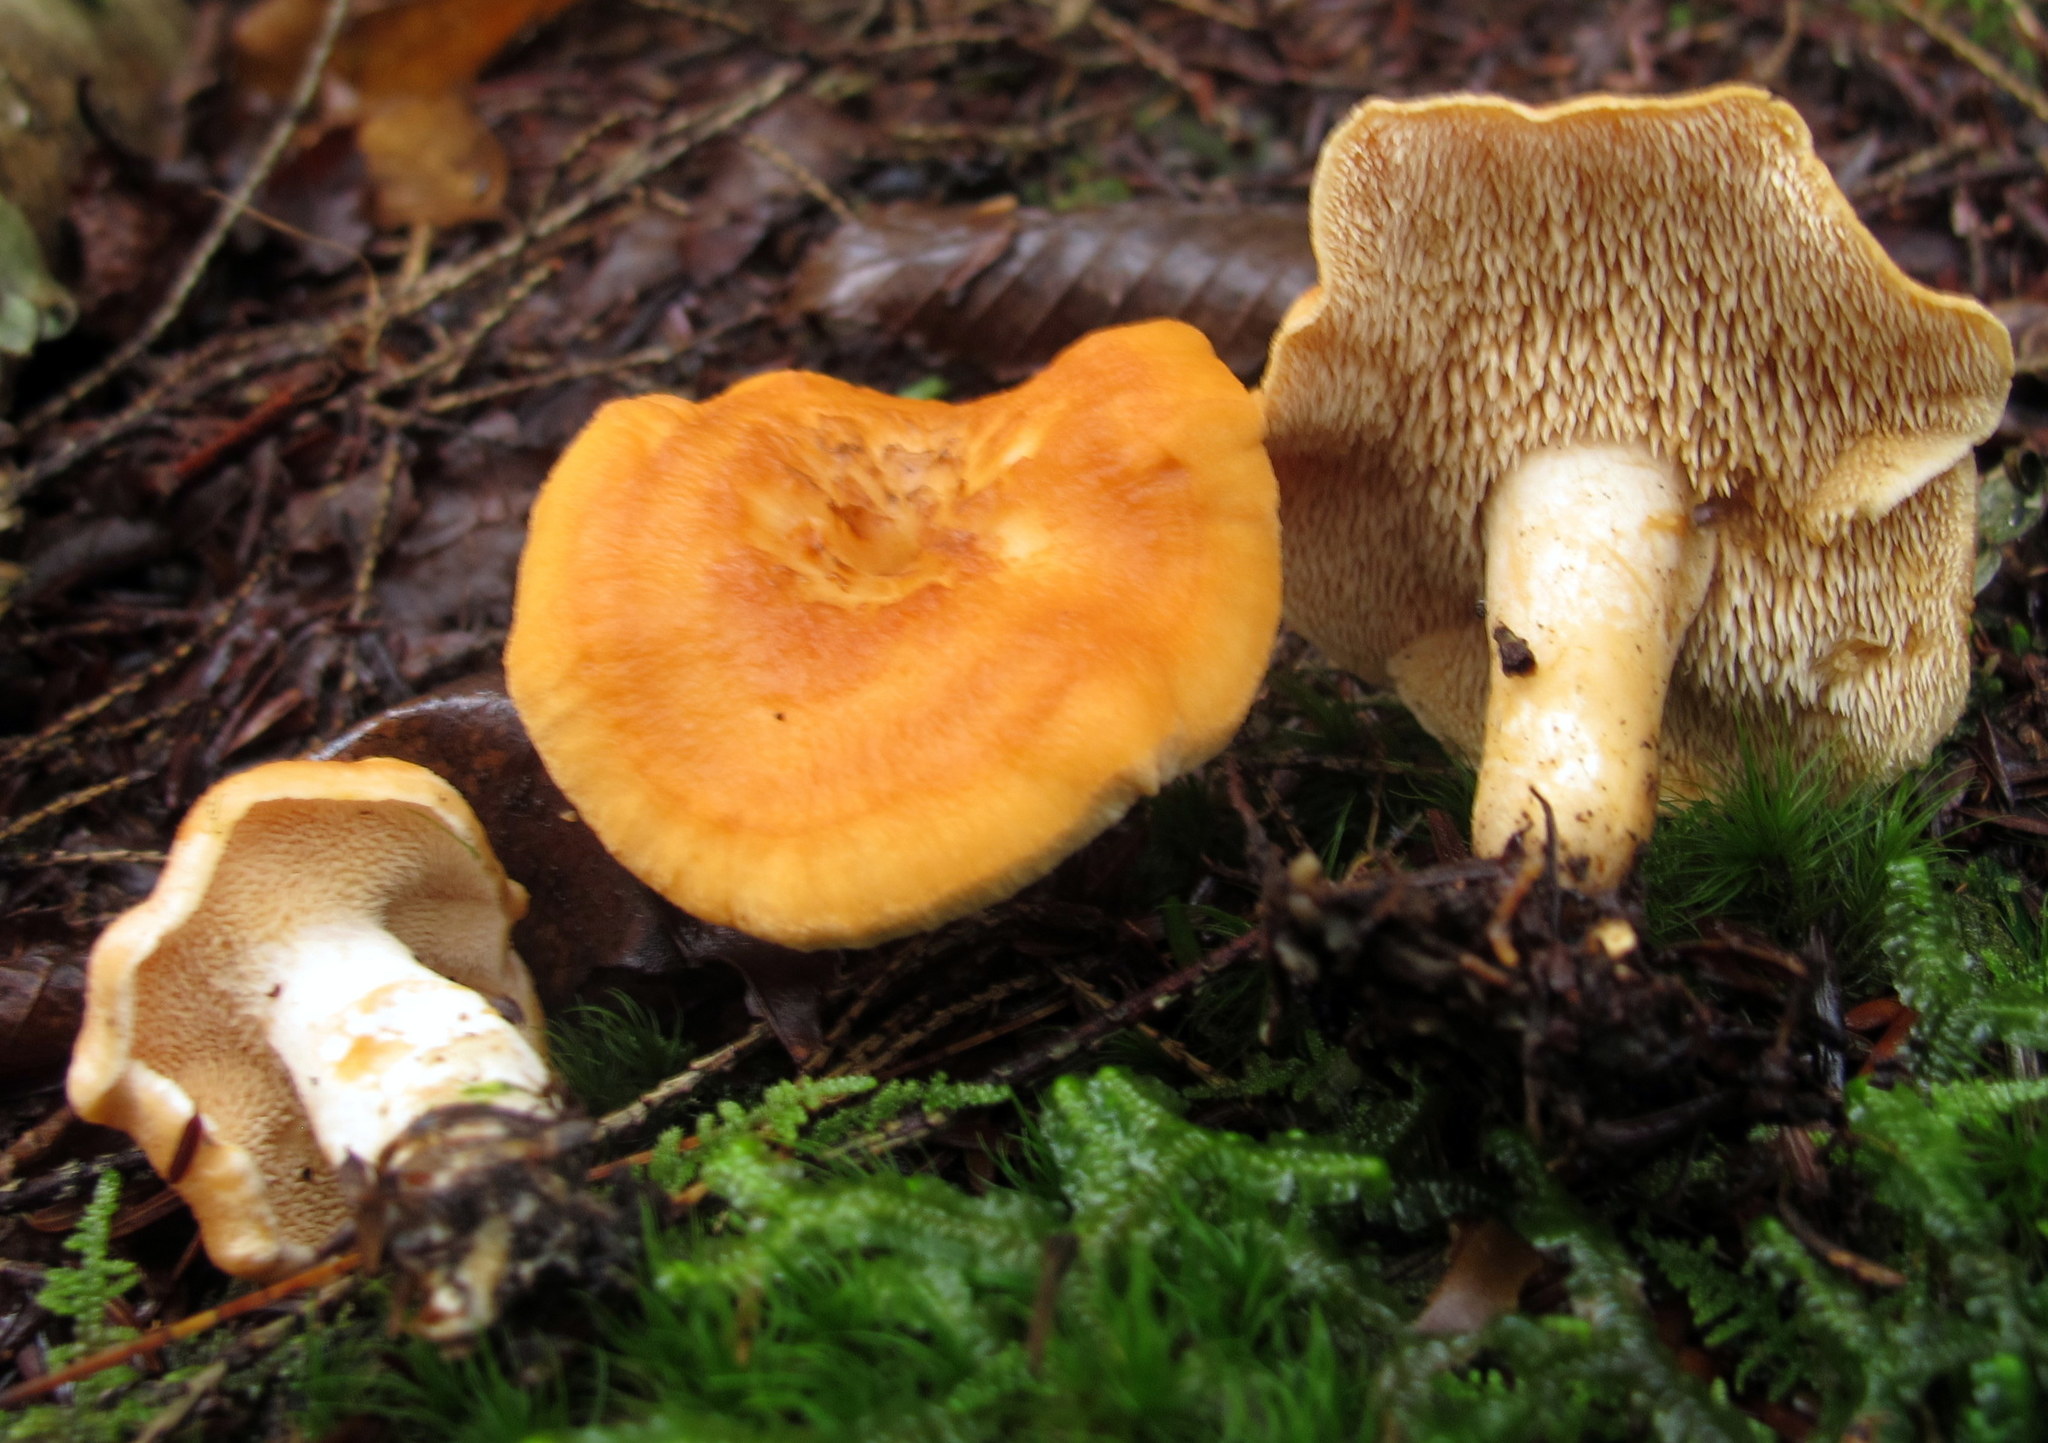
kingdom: Fungi
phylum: Basidiomycota
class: Agaricomycetes
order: Cantharellales
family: Hydnaceae
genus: Hydnum
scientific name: Hydnum umbilicatum
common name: Umbilicate hedgehog
